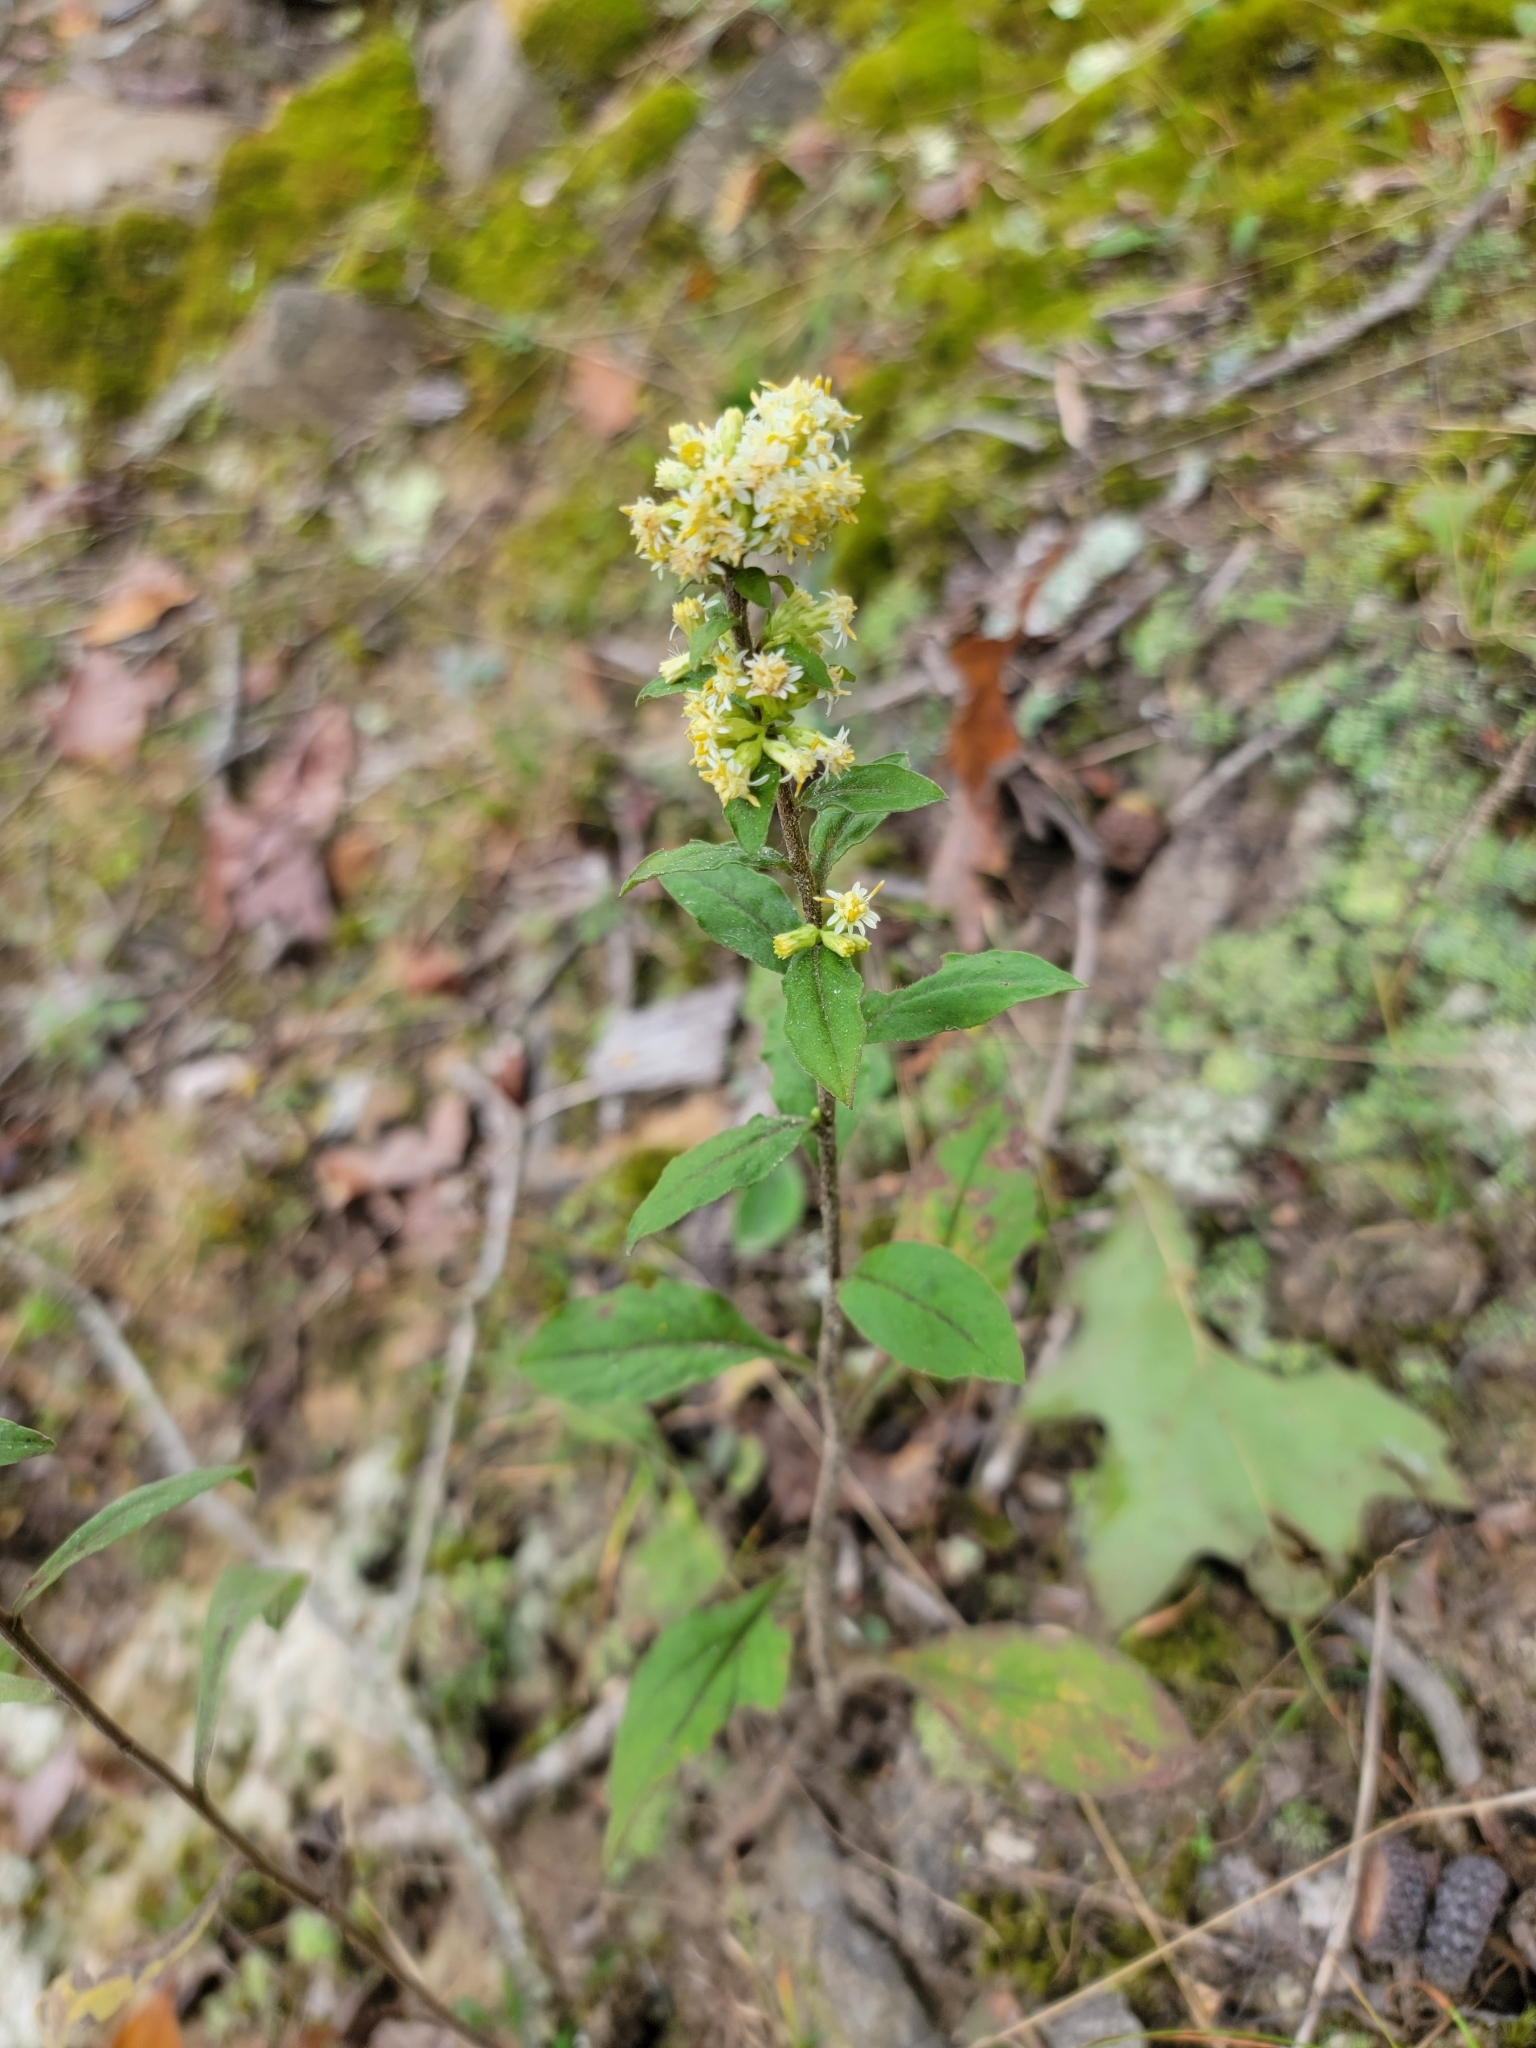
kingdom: Plantae
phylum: Tracheophyta
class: Magnoliopsida
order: Asterales
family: Asteraceae
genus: Solidago
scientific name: Solidago bicolor
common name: Silverrod
